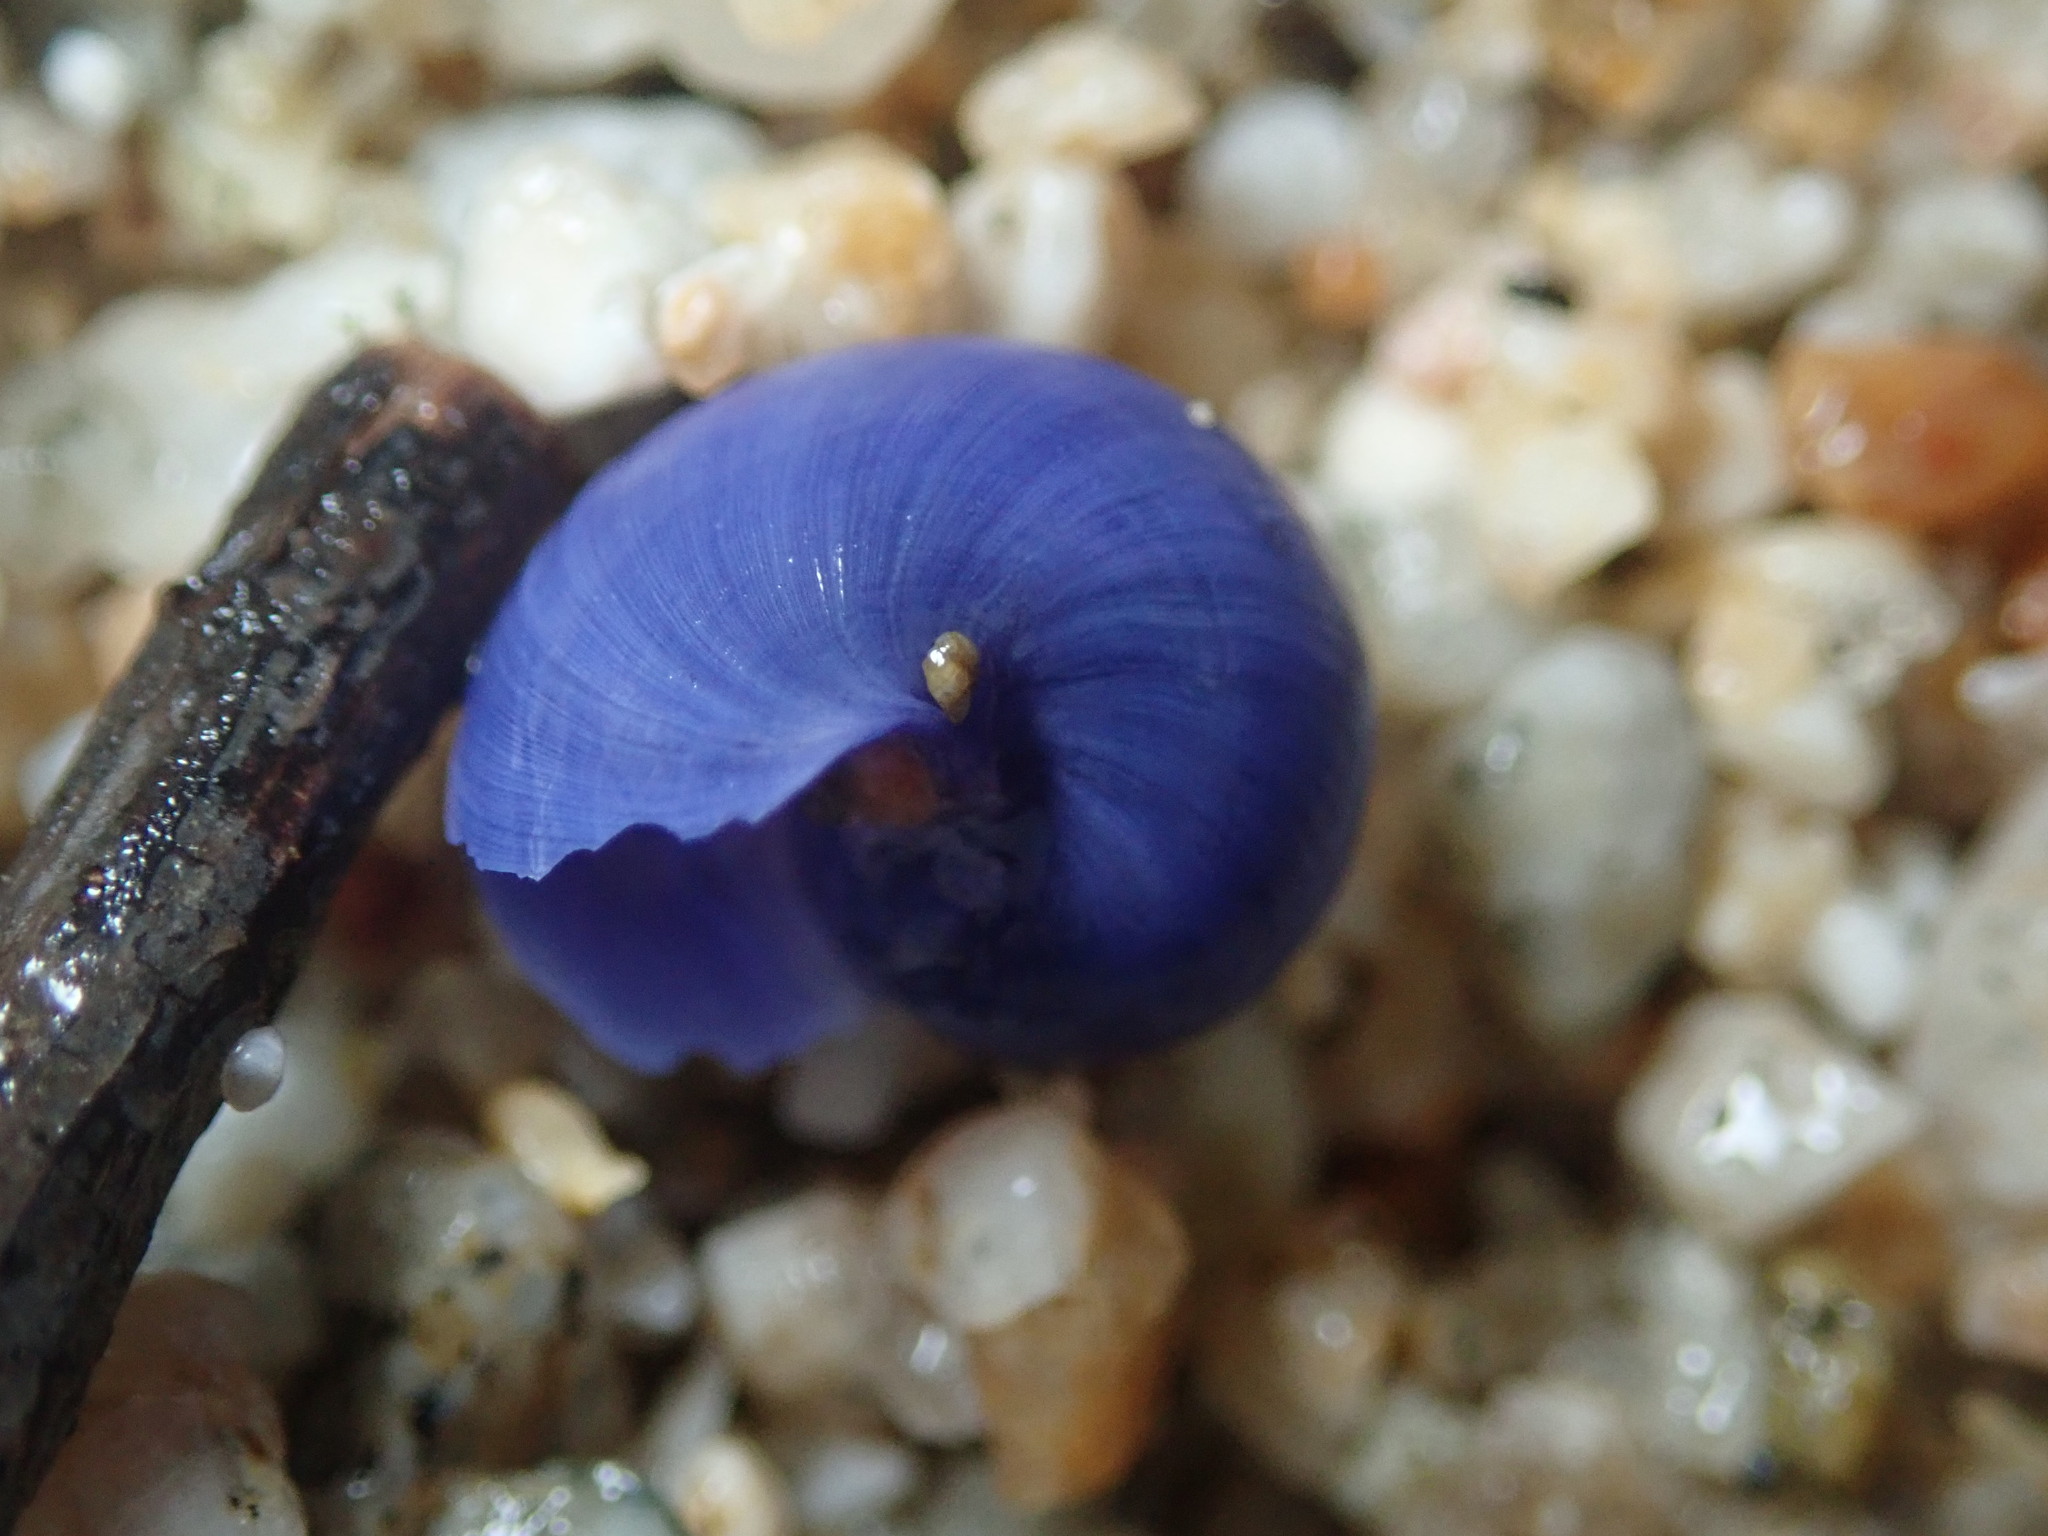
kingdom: Animalia
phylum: Mollusca
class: Gastropoda
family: Epitoniidae
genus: Janthina
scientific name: Janthina umbilicata
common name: Elongate janthina
